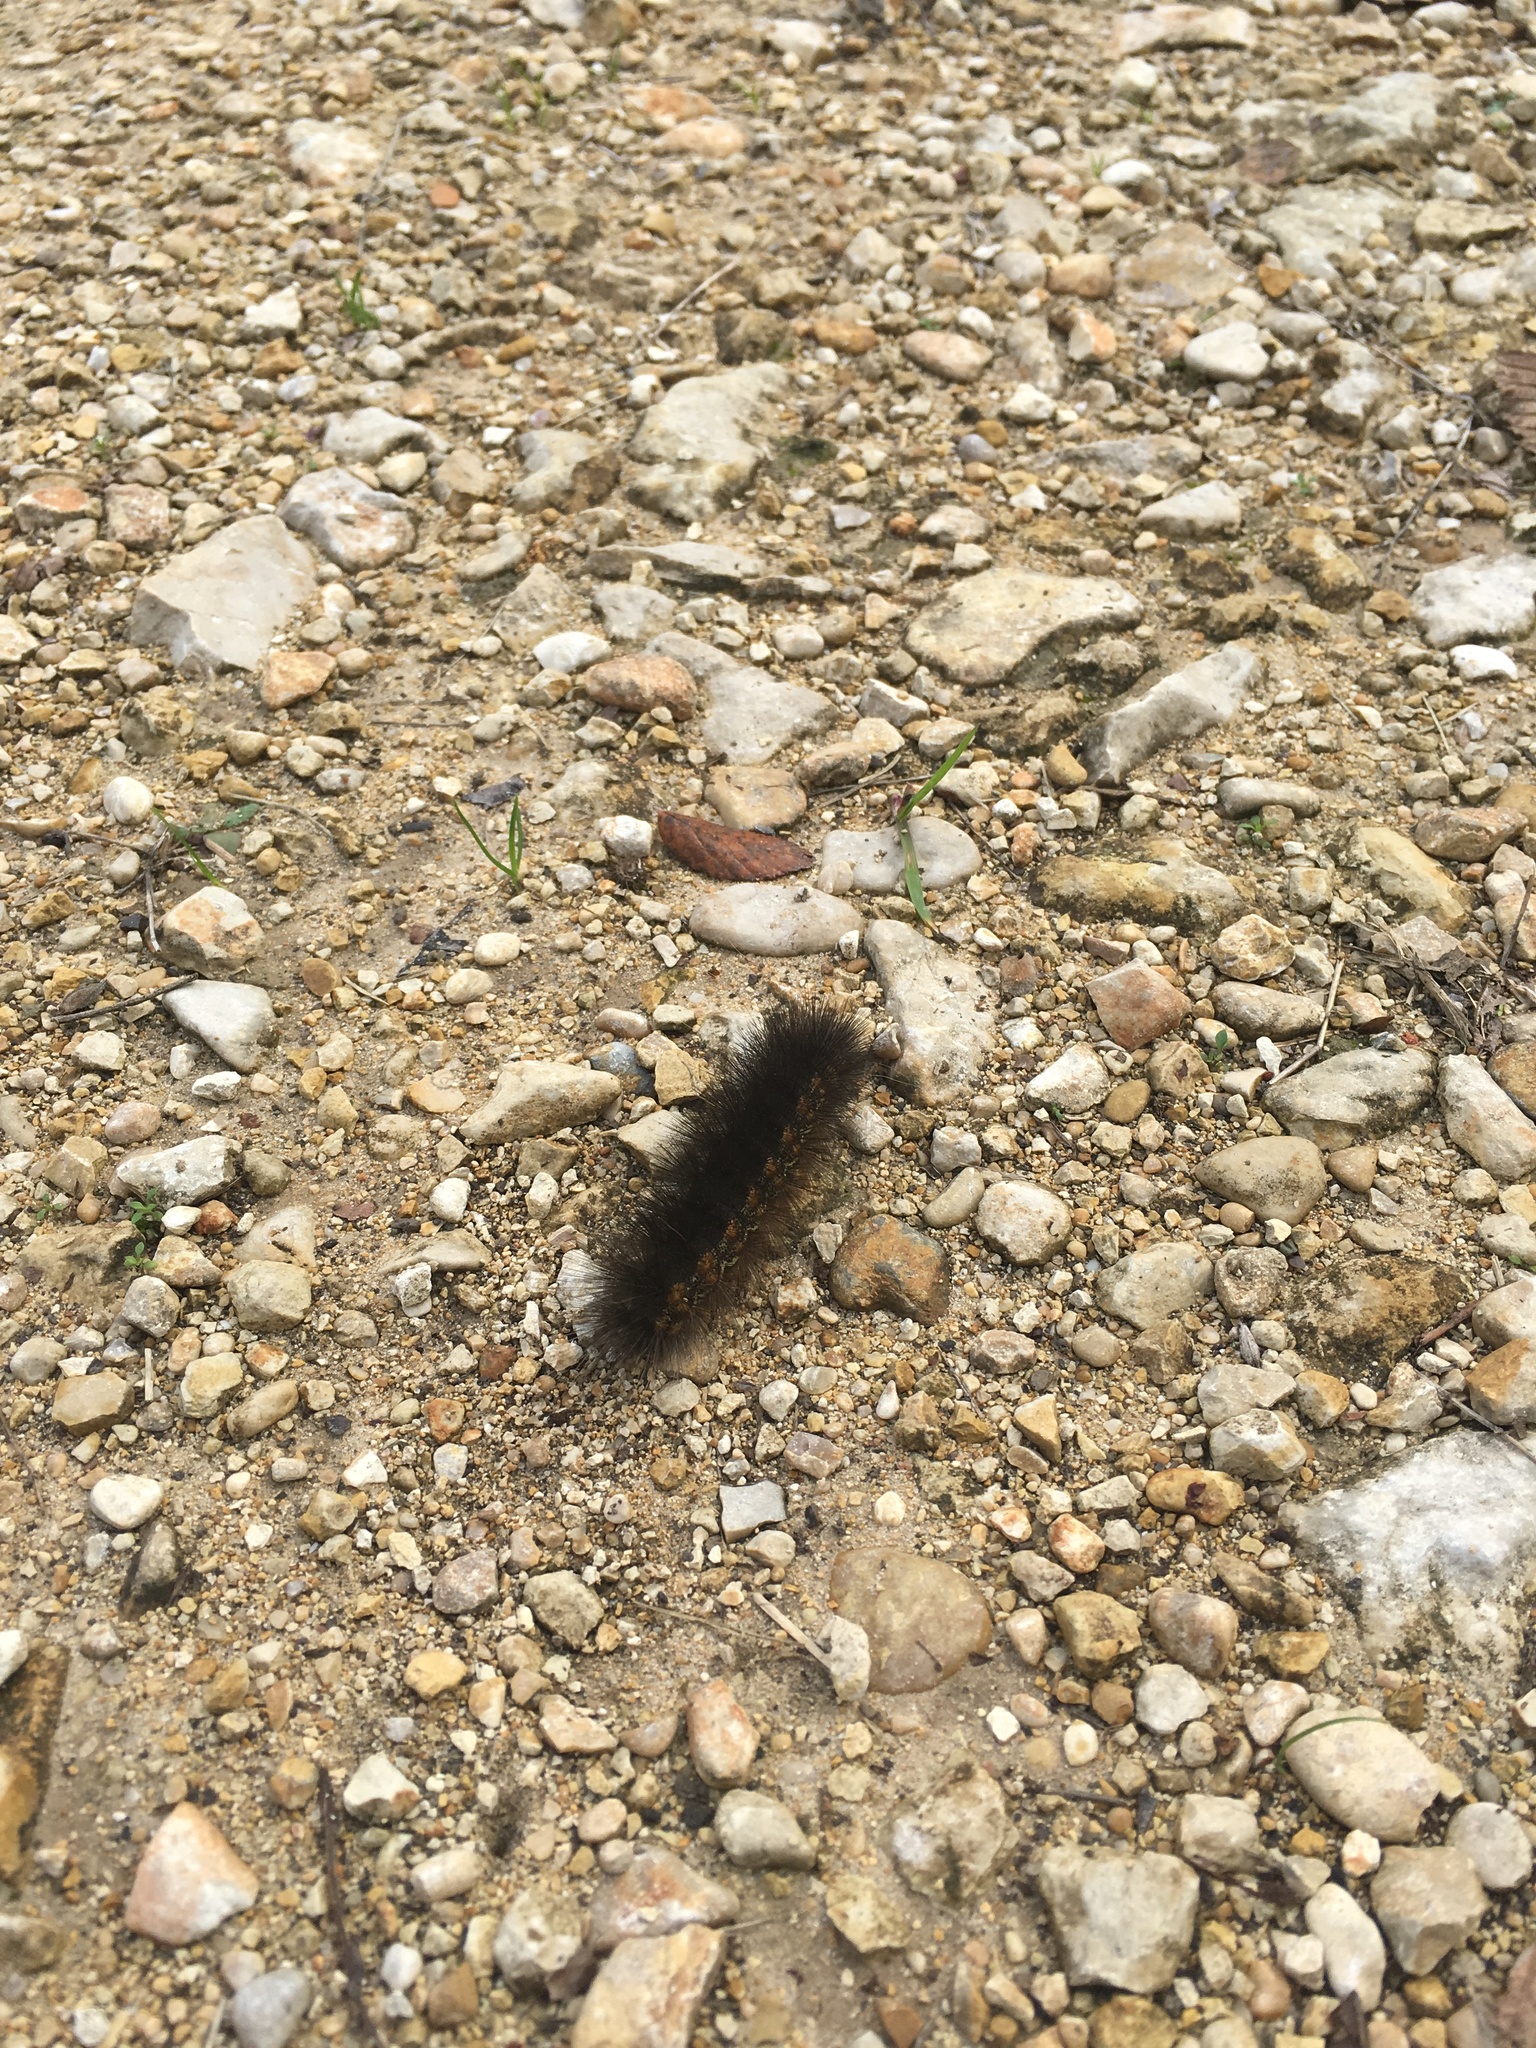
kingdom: Animalia
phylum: Arthropoda
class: Insecta
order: Lepidoptera
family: Erebidae
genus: Estigmene
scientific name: Estigmene acrea
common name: Salt marsh moth
